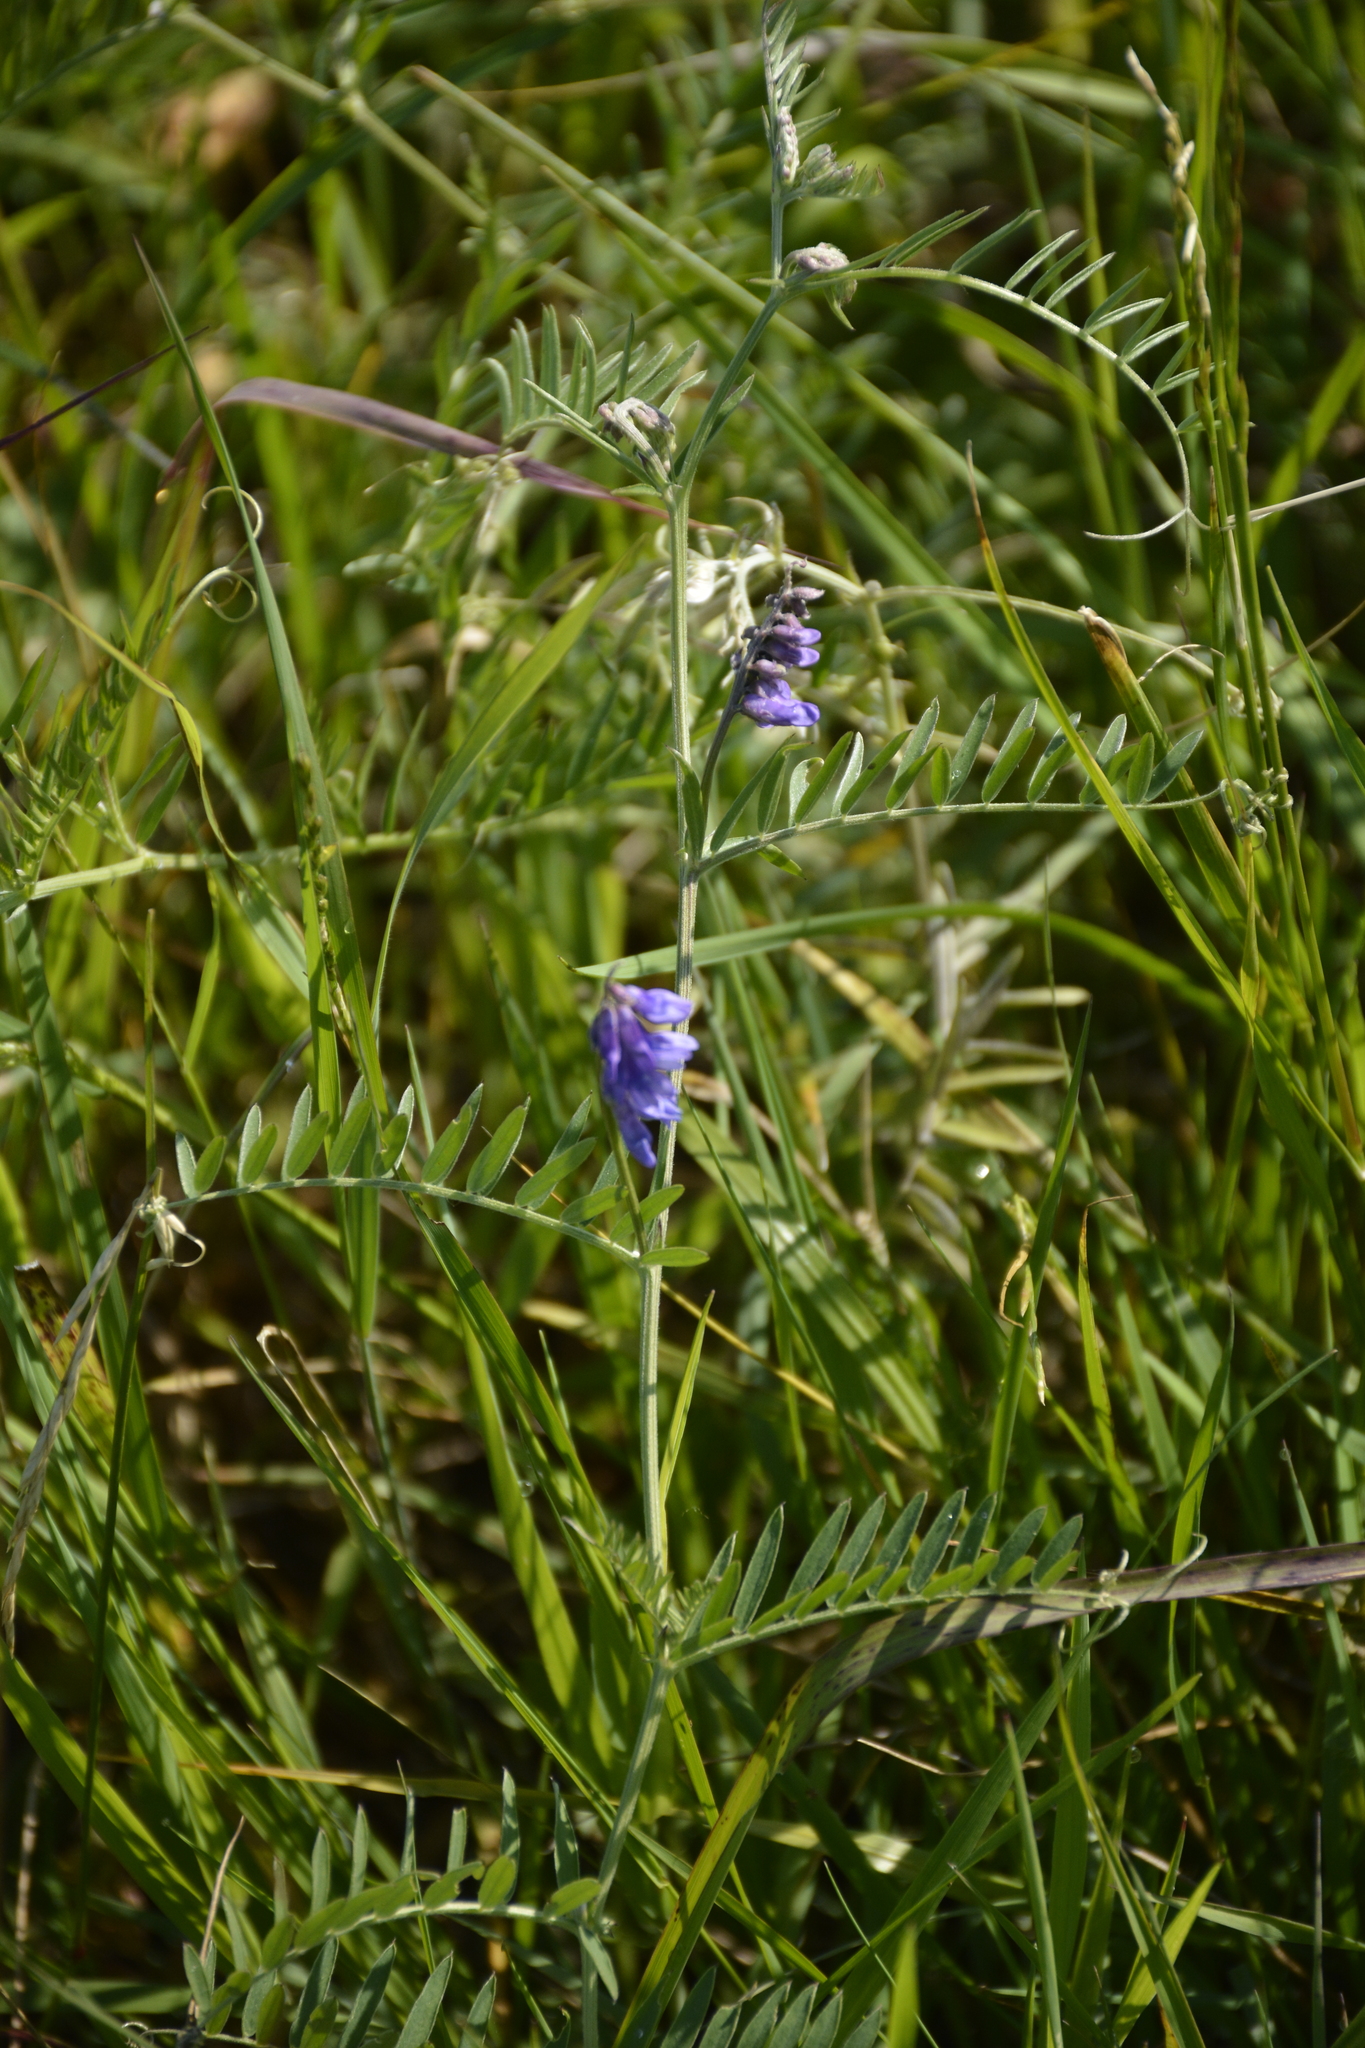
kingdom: Plantae
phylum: Tracheophyta
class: Magnoliopsida
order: Fabales
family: Fabaceae
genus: Vicia
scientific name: Vicia cracca
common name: Bird vetch
